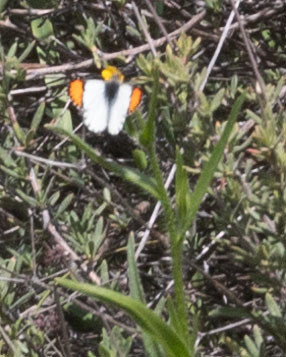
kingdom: Animalia
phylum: Arthropoda
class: Insecta
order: Lepidoptera
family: Pieridae
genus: Anthocharis
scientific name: Anthocharis sara
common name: Sara's orangetip
